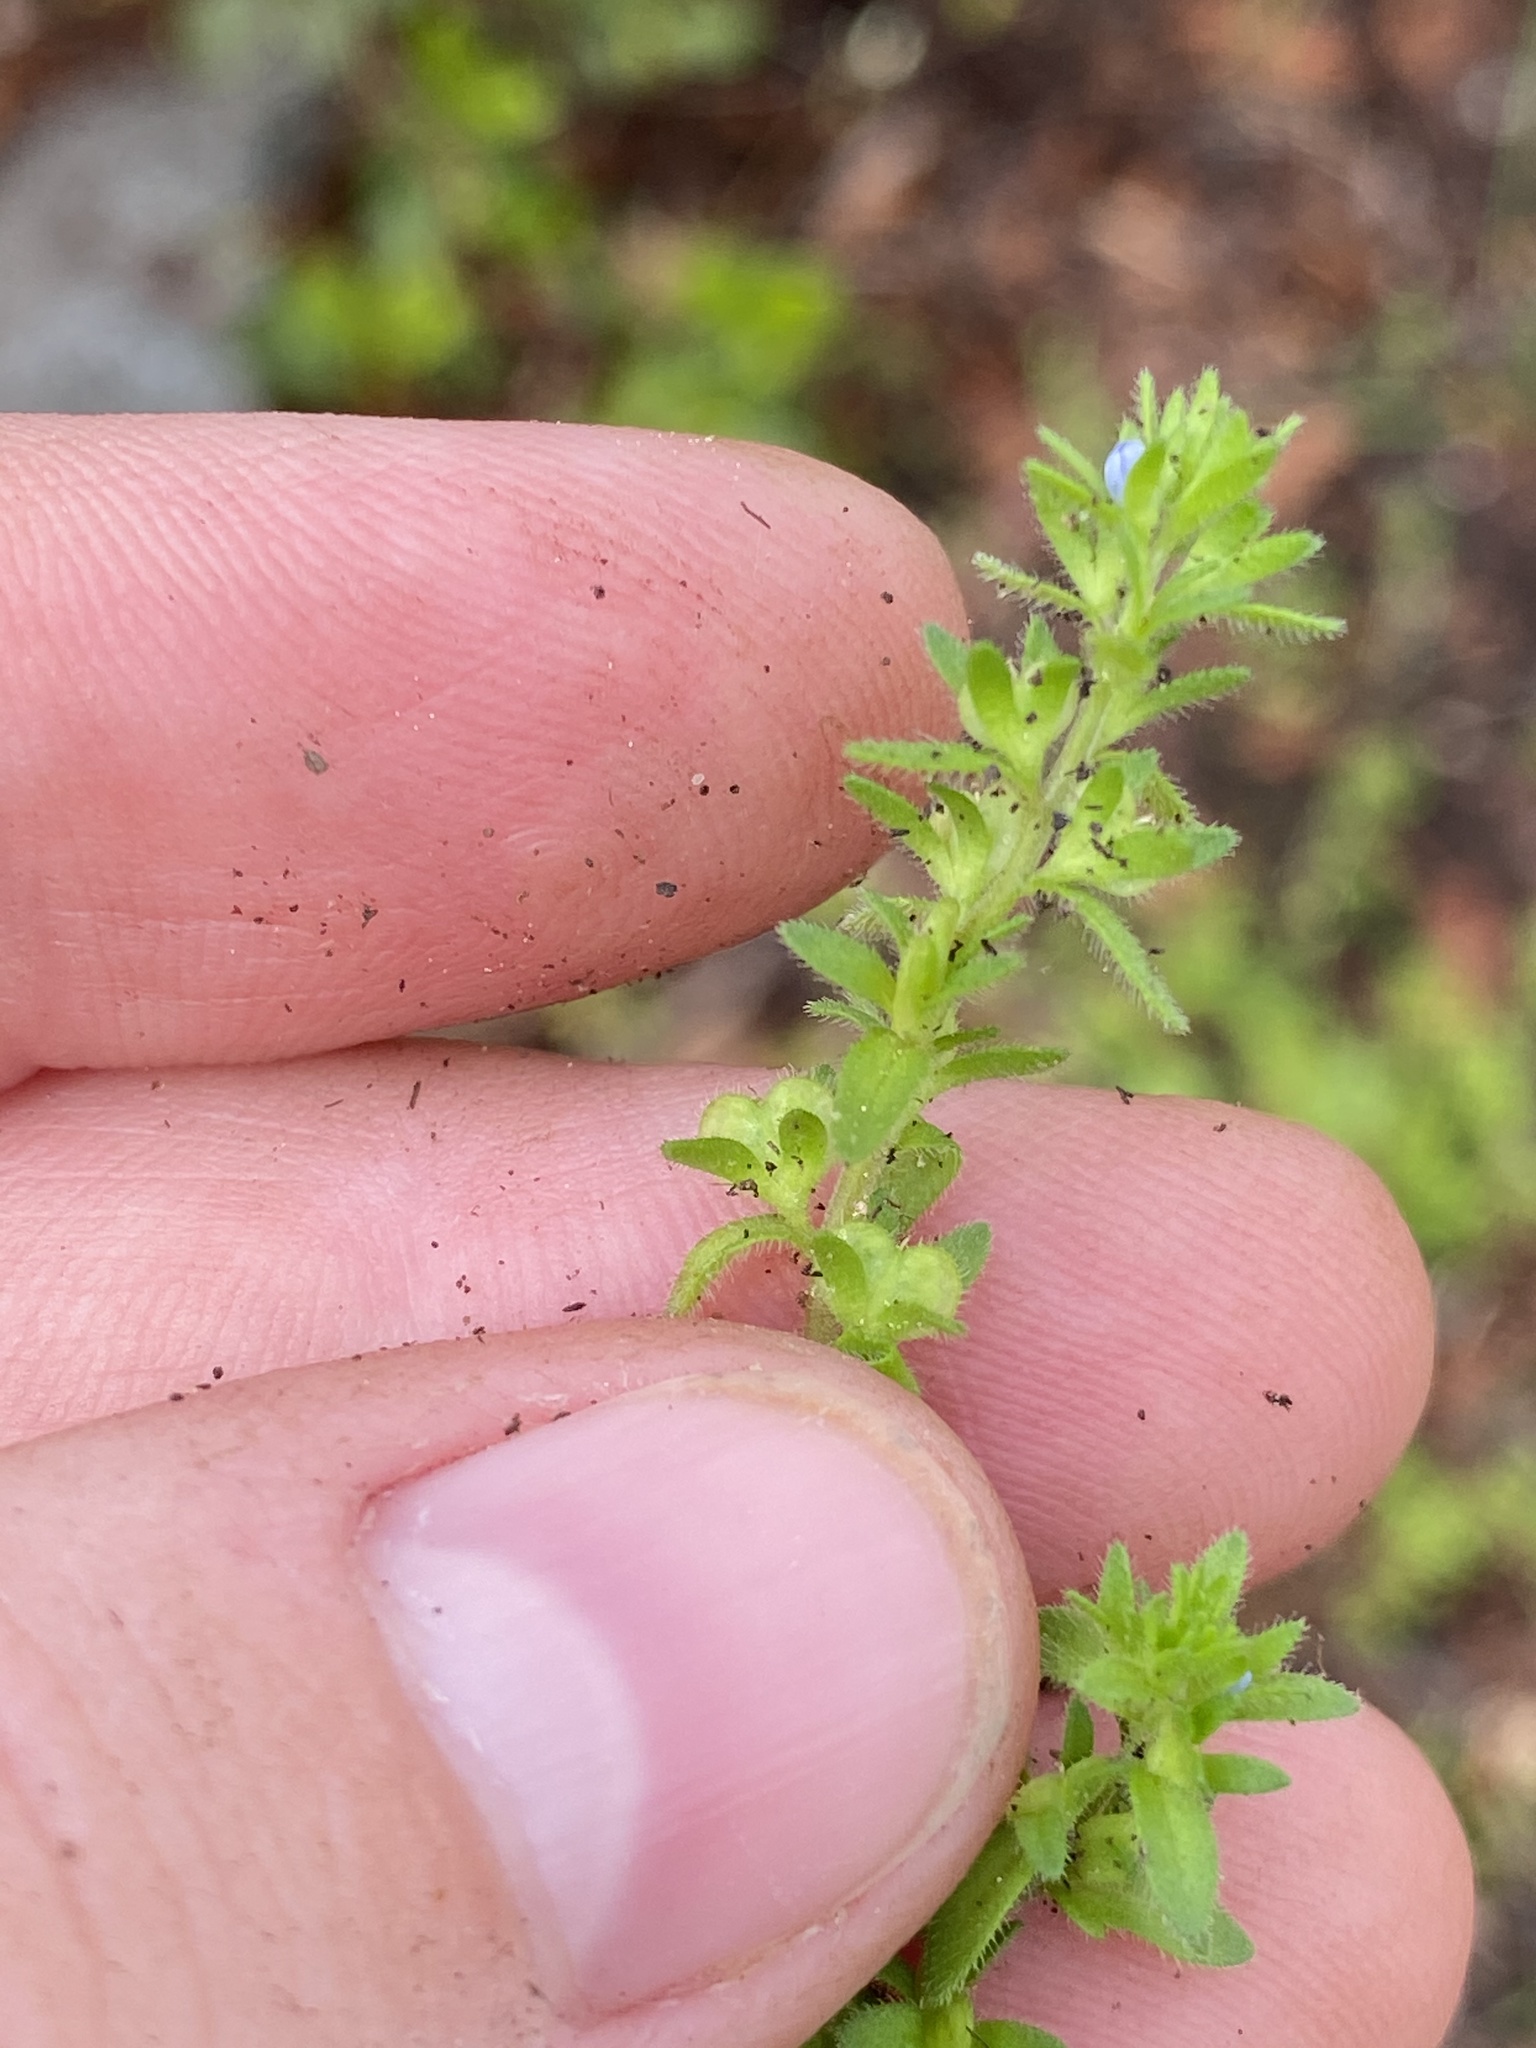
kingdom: Plantae
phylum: Tracheophyta
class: Magnoliopsida
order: Lamiales
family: Plantaginaceae
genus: Veronica
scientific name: Veronica arvensis
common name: Corn speedwell
